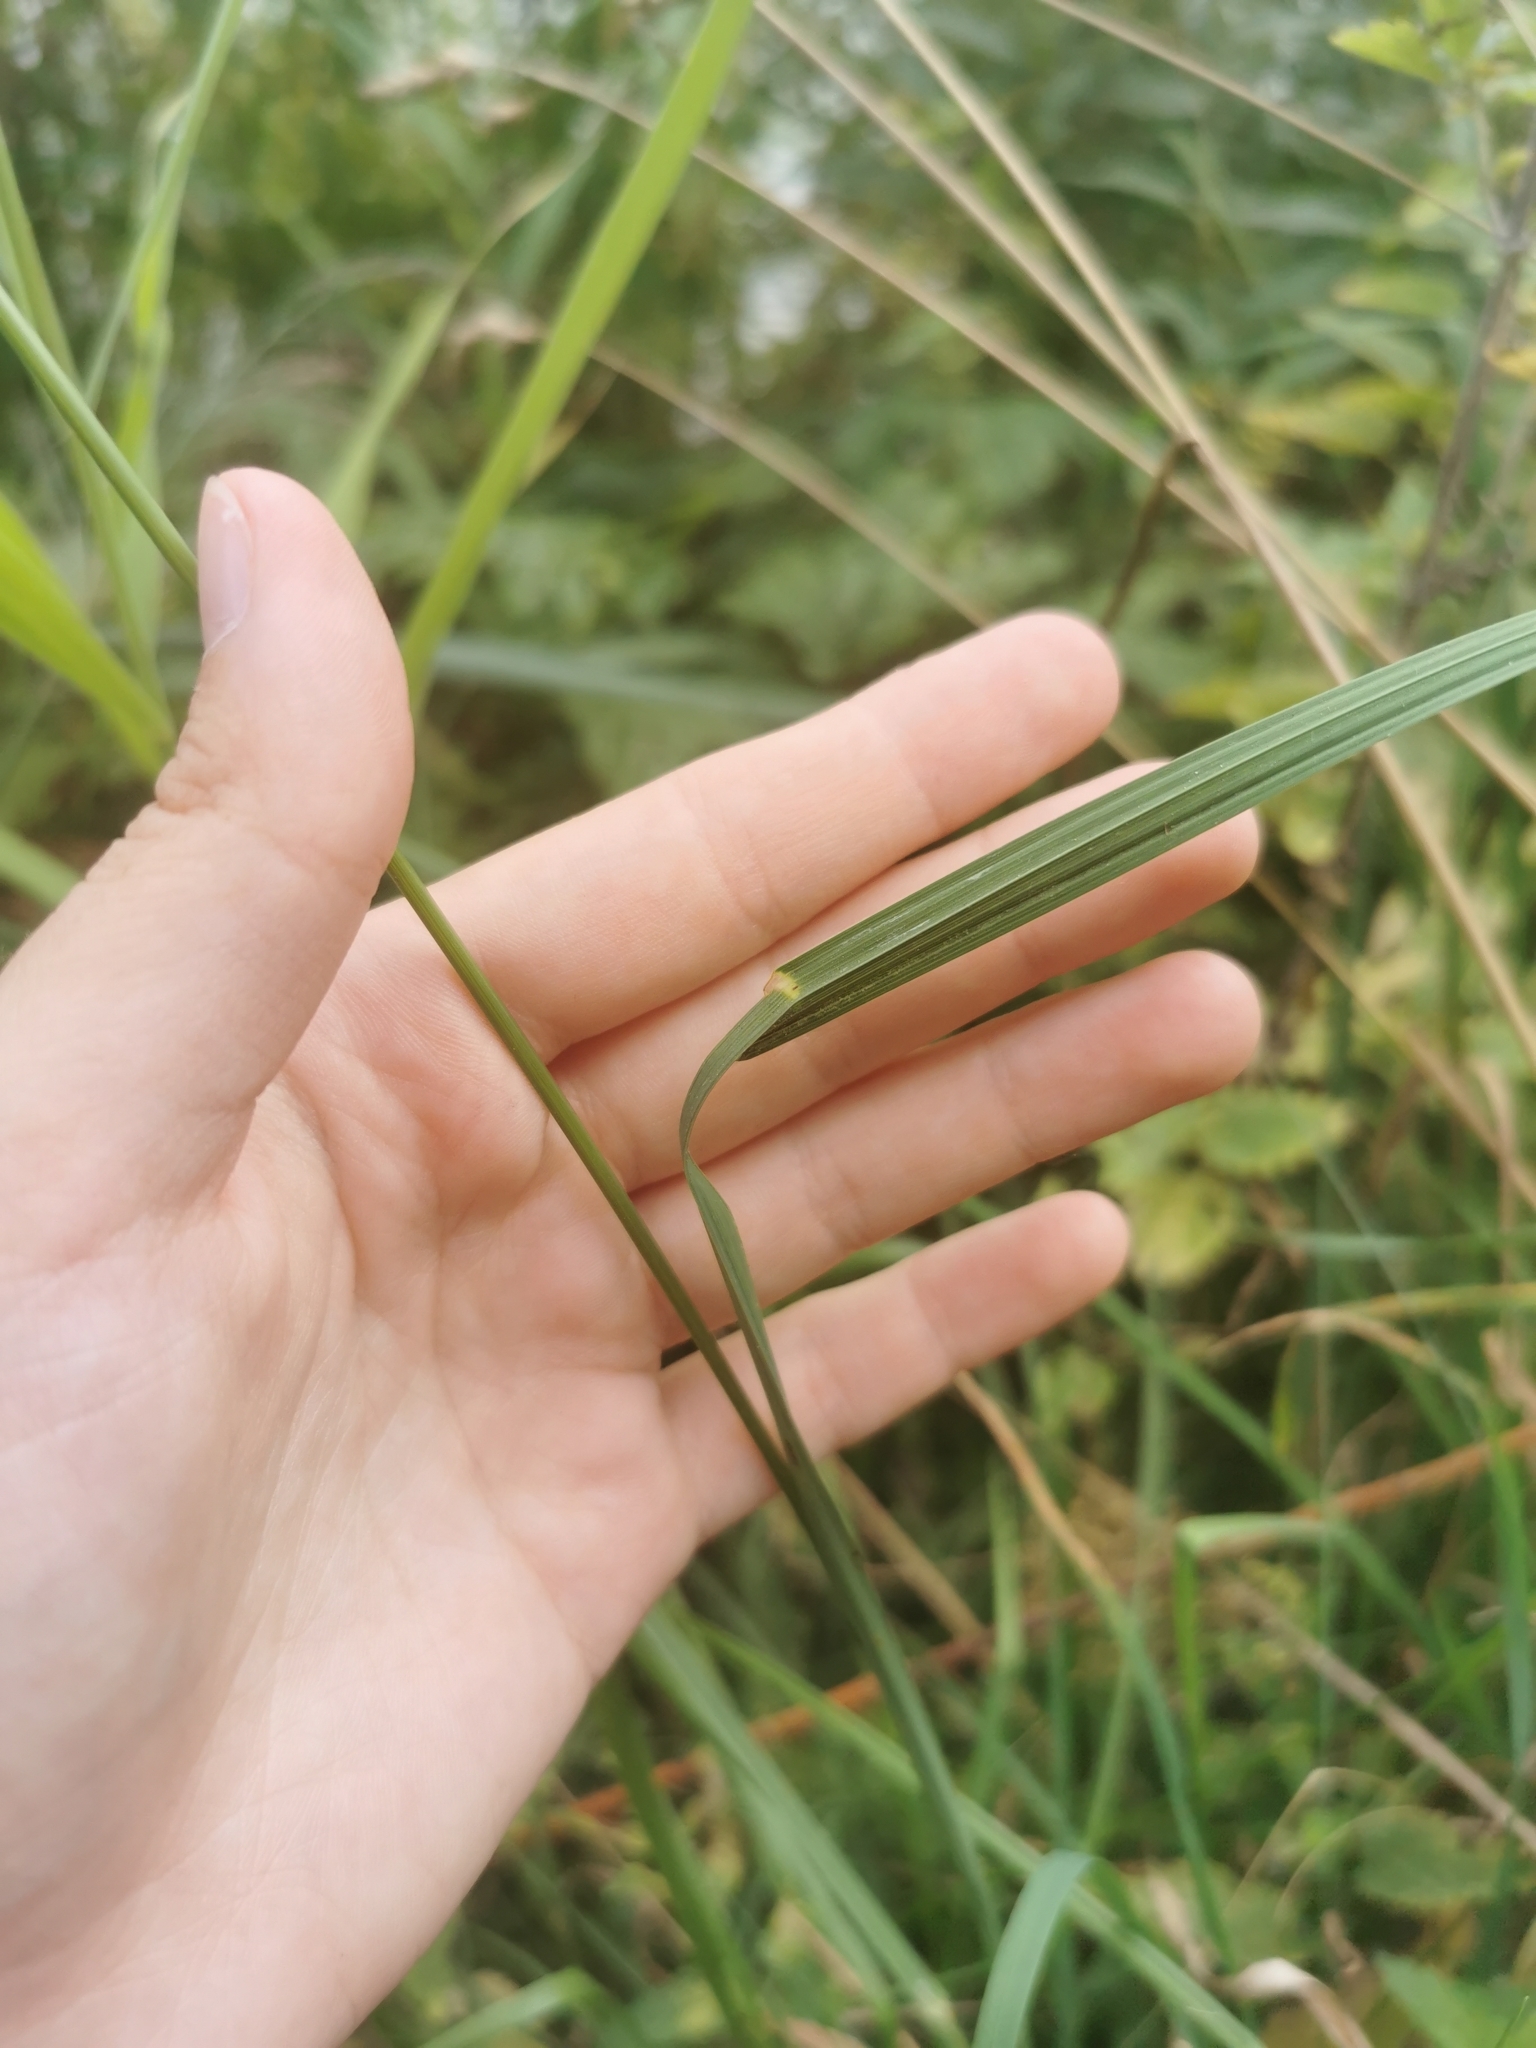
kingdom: Plantae
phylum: Tracheophyta
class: Liliopsida
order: Poales
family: Poaceae
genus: Dactylis
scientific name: Dactylis glomerata
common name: Orchardgrass
